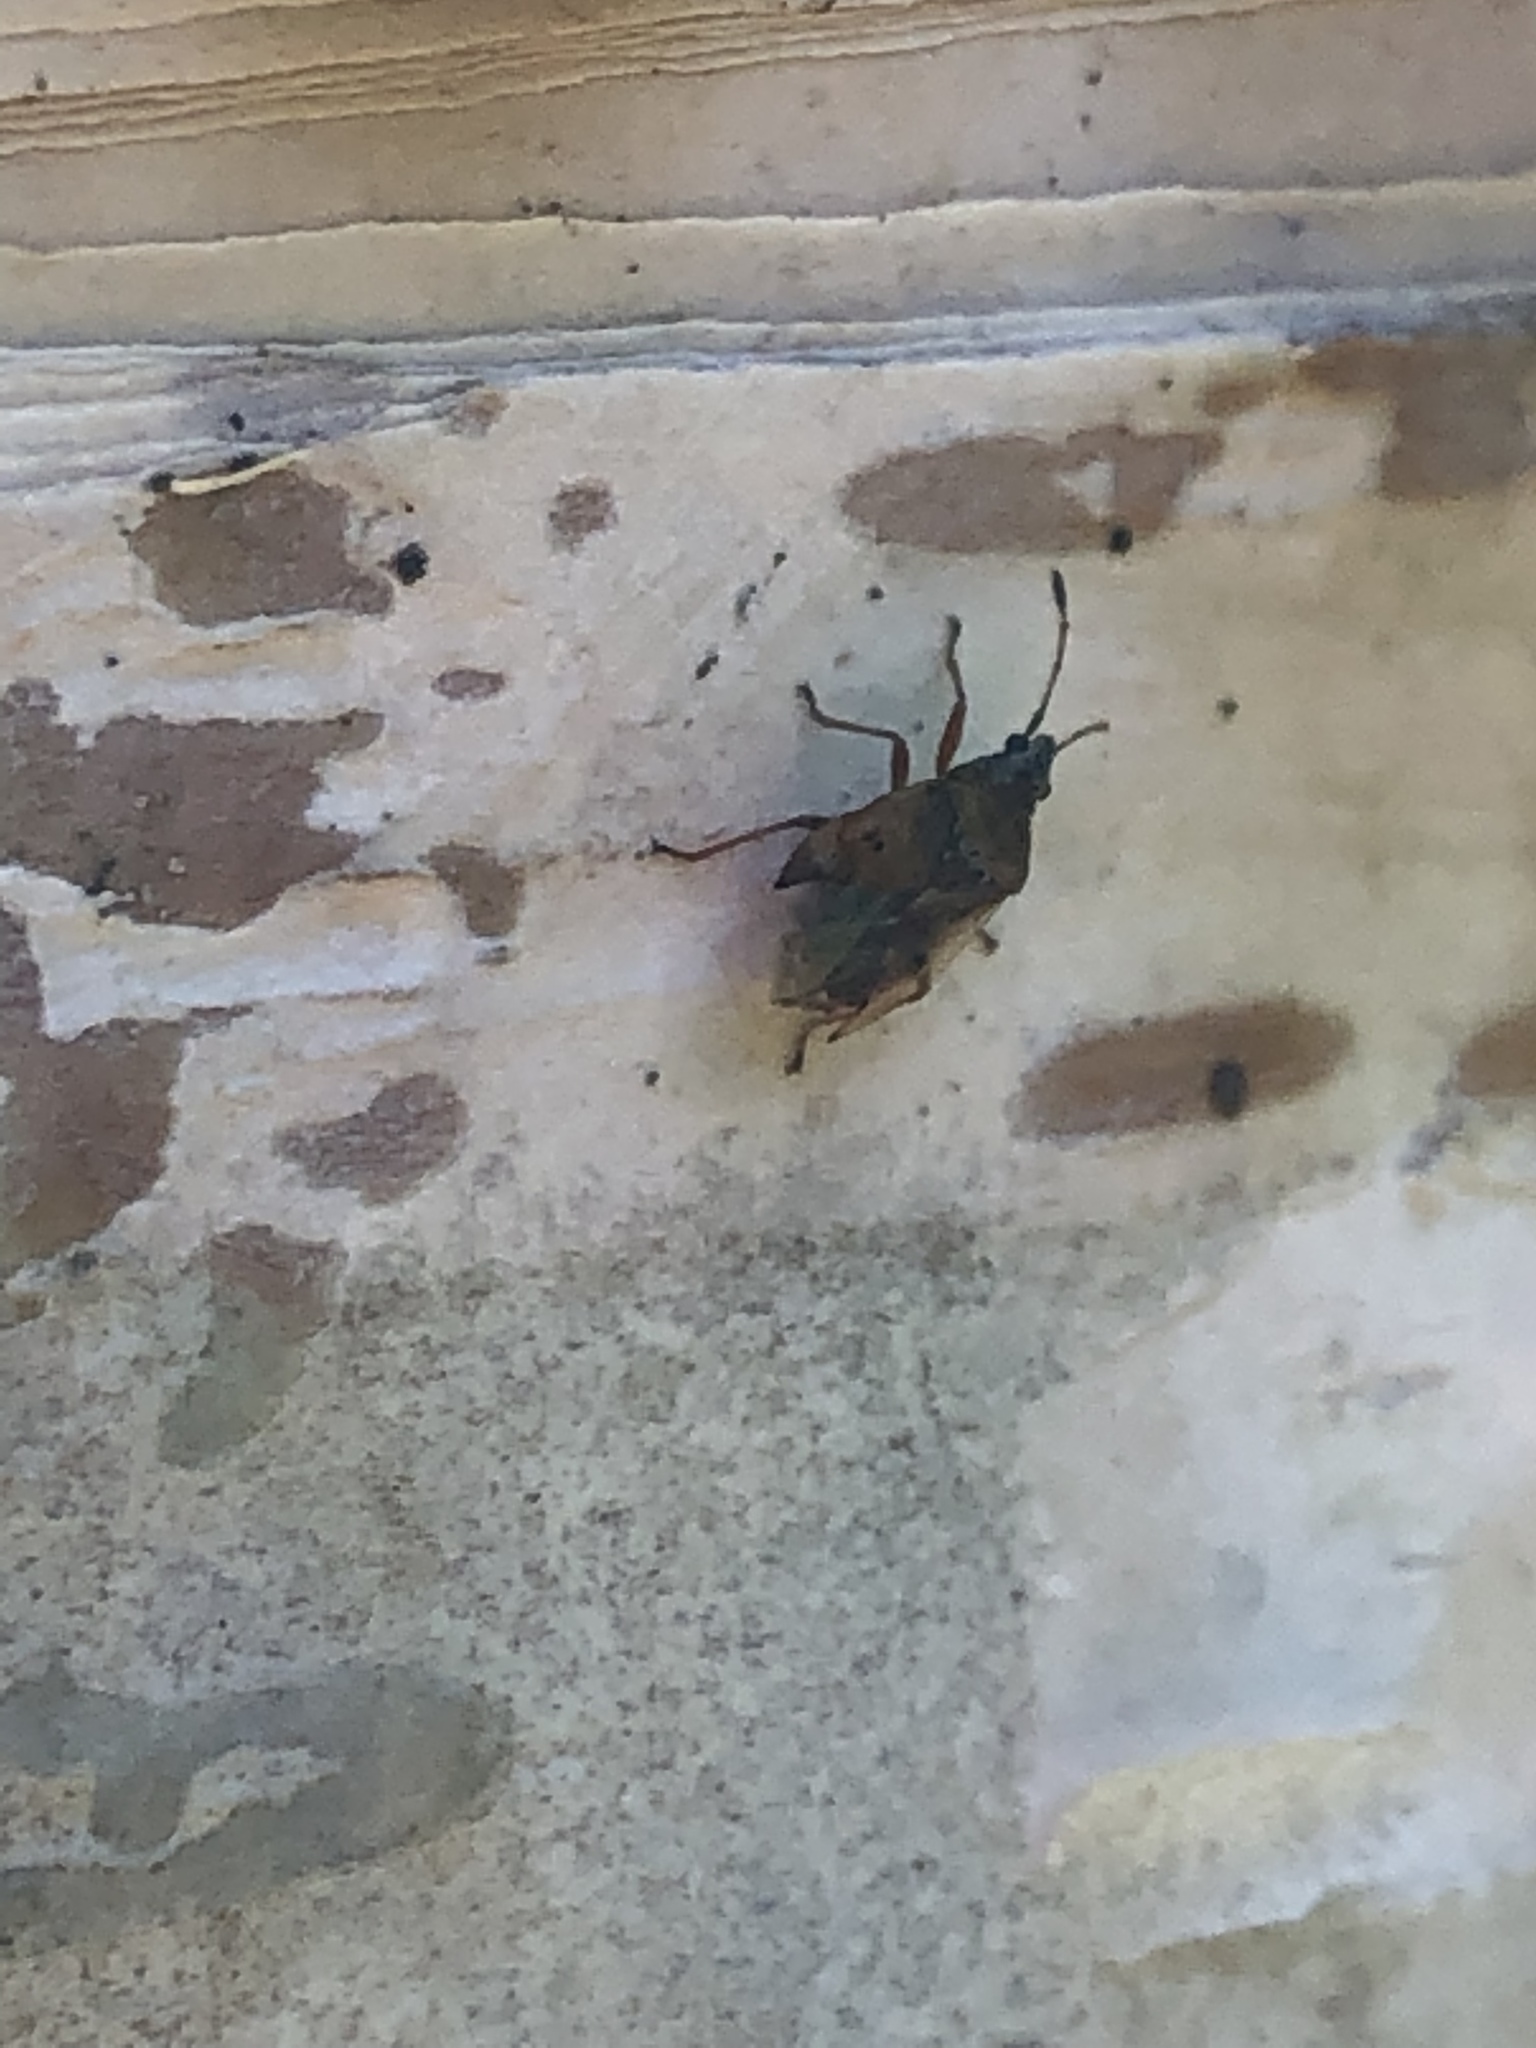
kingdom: Animalia
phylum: Arthropoda
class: Insecta
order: Hemiptera
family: Lygaeidae
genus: Kleidocerys
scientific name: Kleidocerys resedae
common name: Birch catkin bug
